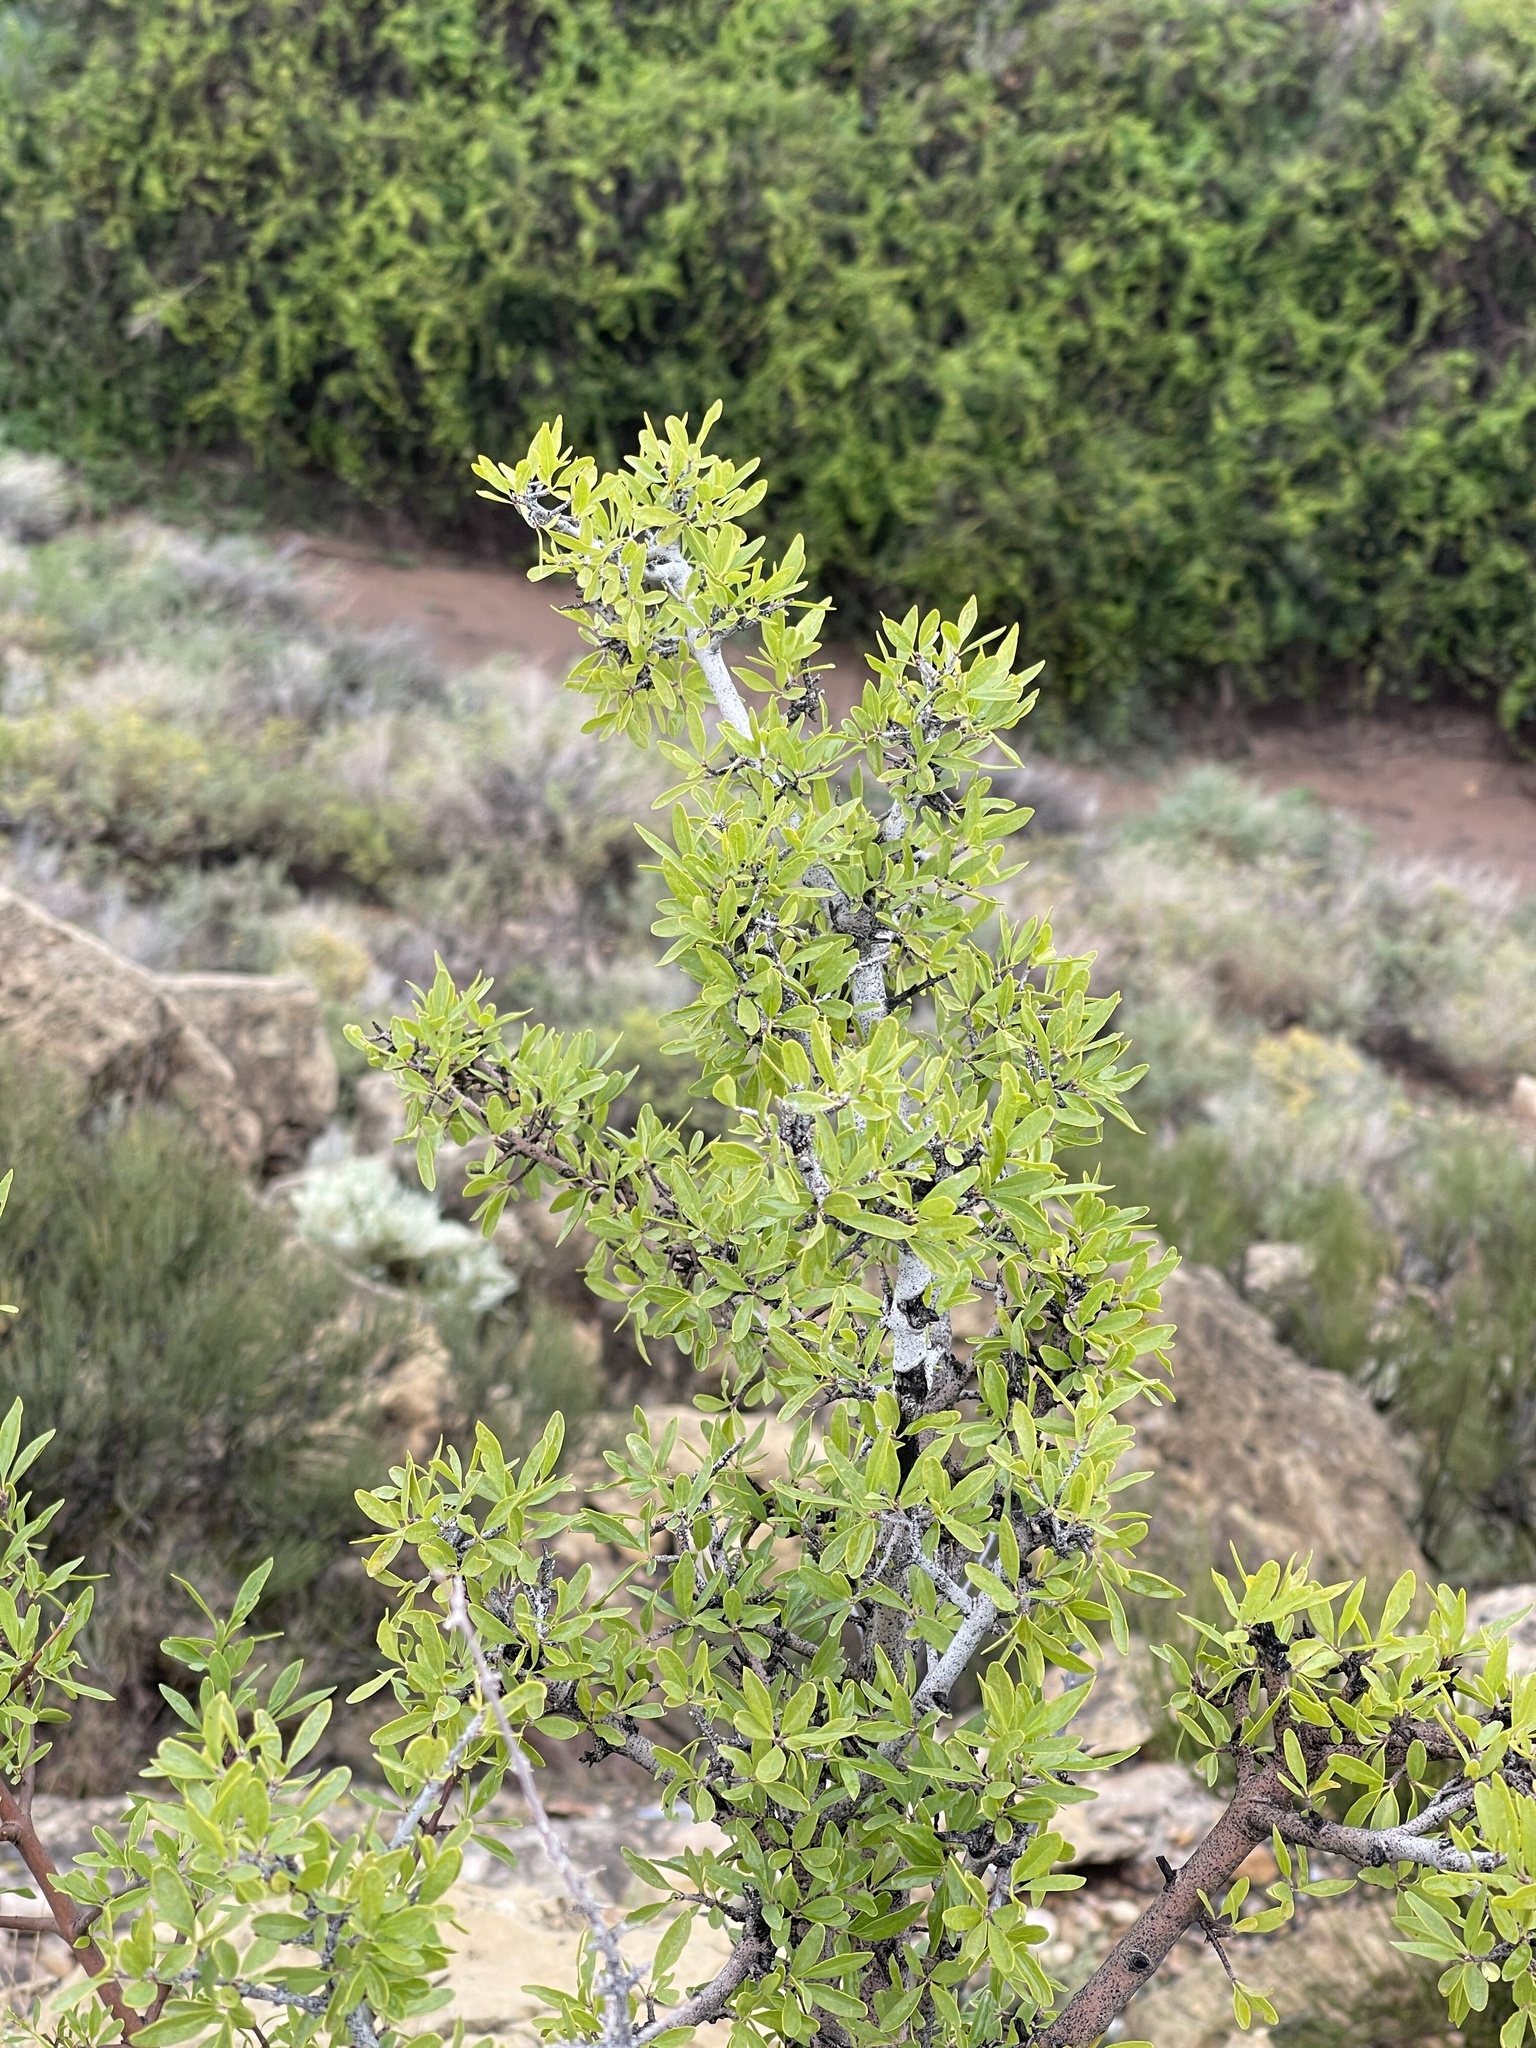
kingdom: Plantae
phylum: Tracheophyta
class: Magnoliopsida
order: Lamiales
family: Oleaceae
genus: Forestiera
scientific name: Forestiera pubescens
